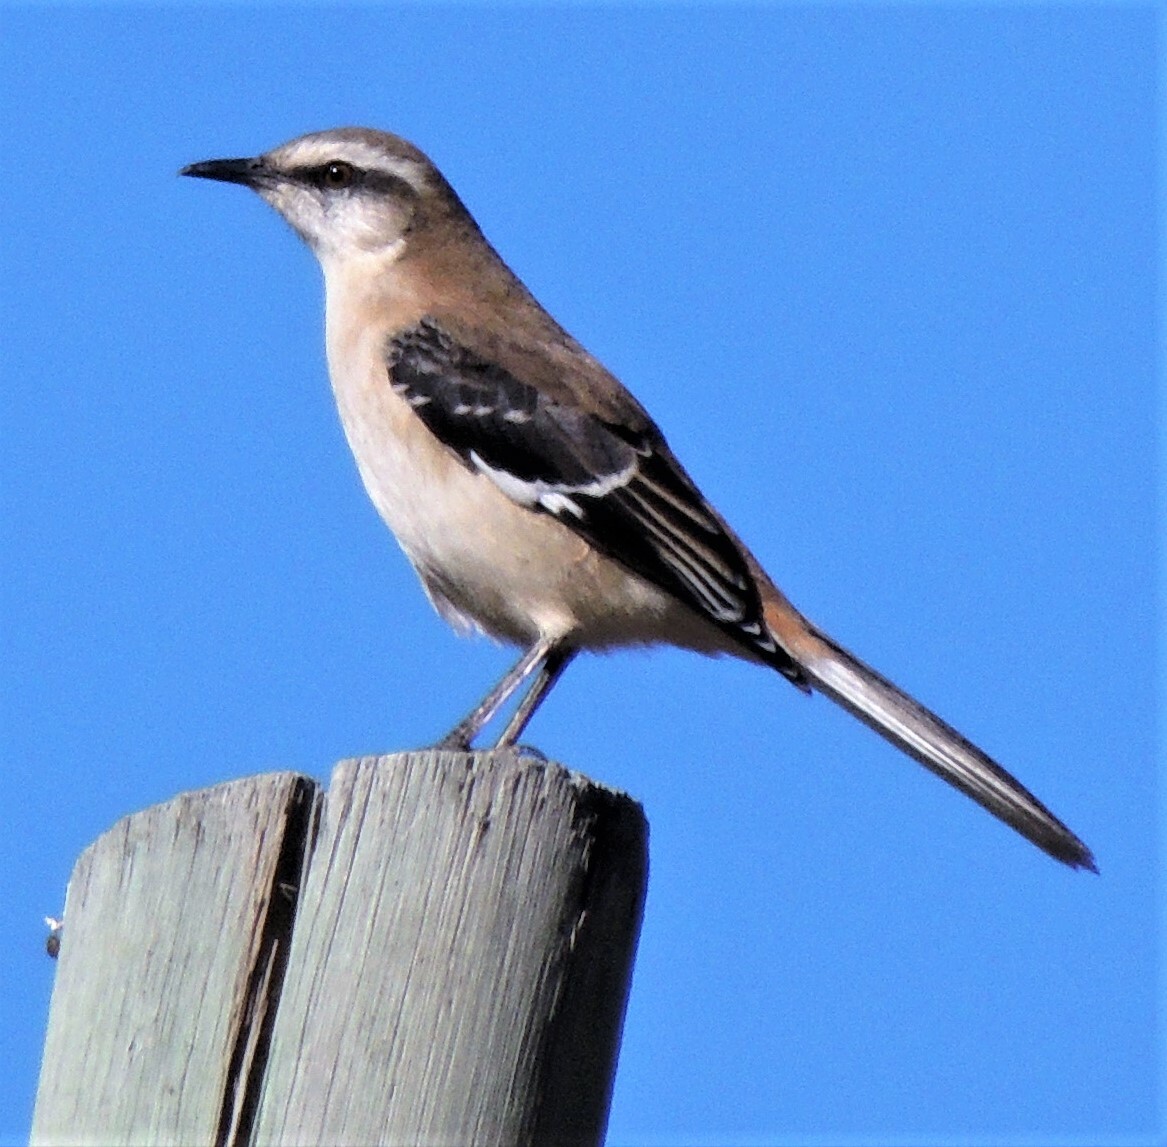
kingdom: Animalia
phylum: Chordata
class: Aves
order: Passeriformes
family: Mimidae
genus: Mimus
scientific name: Mimus dorsalis
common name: Brown-backed mockingbird
